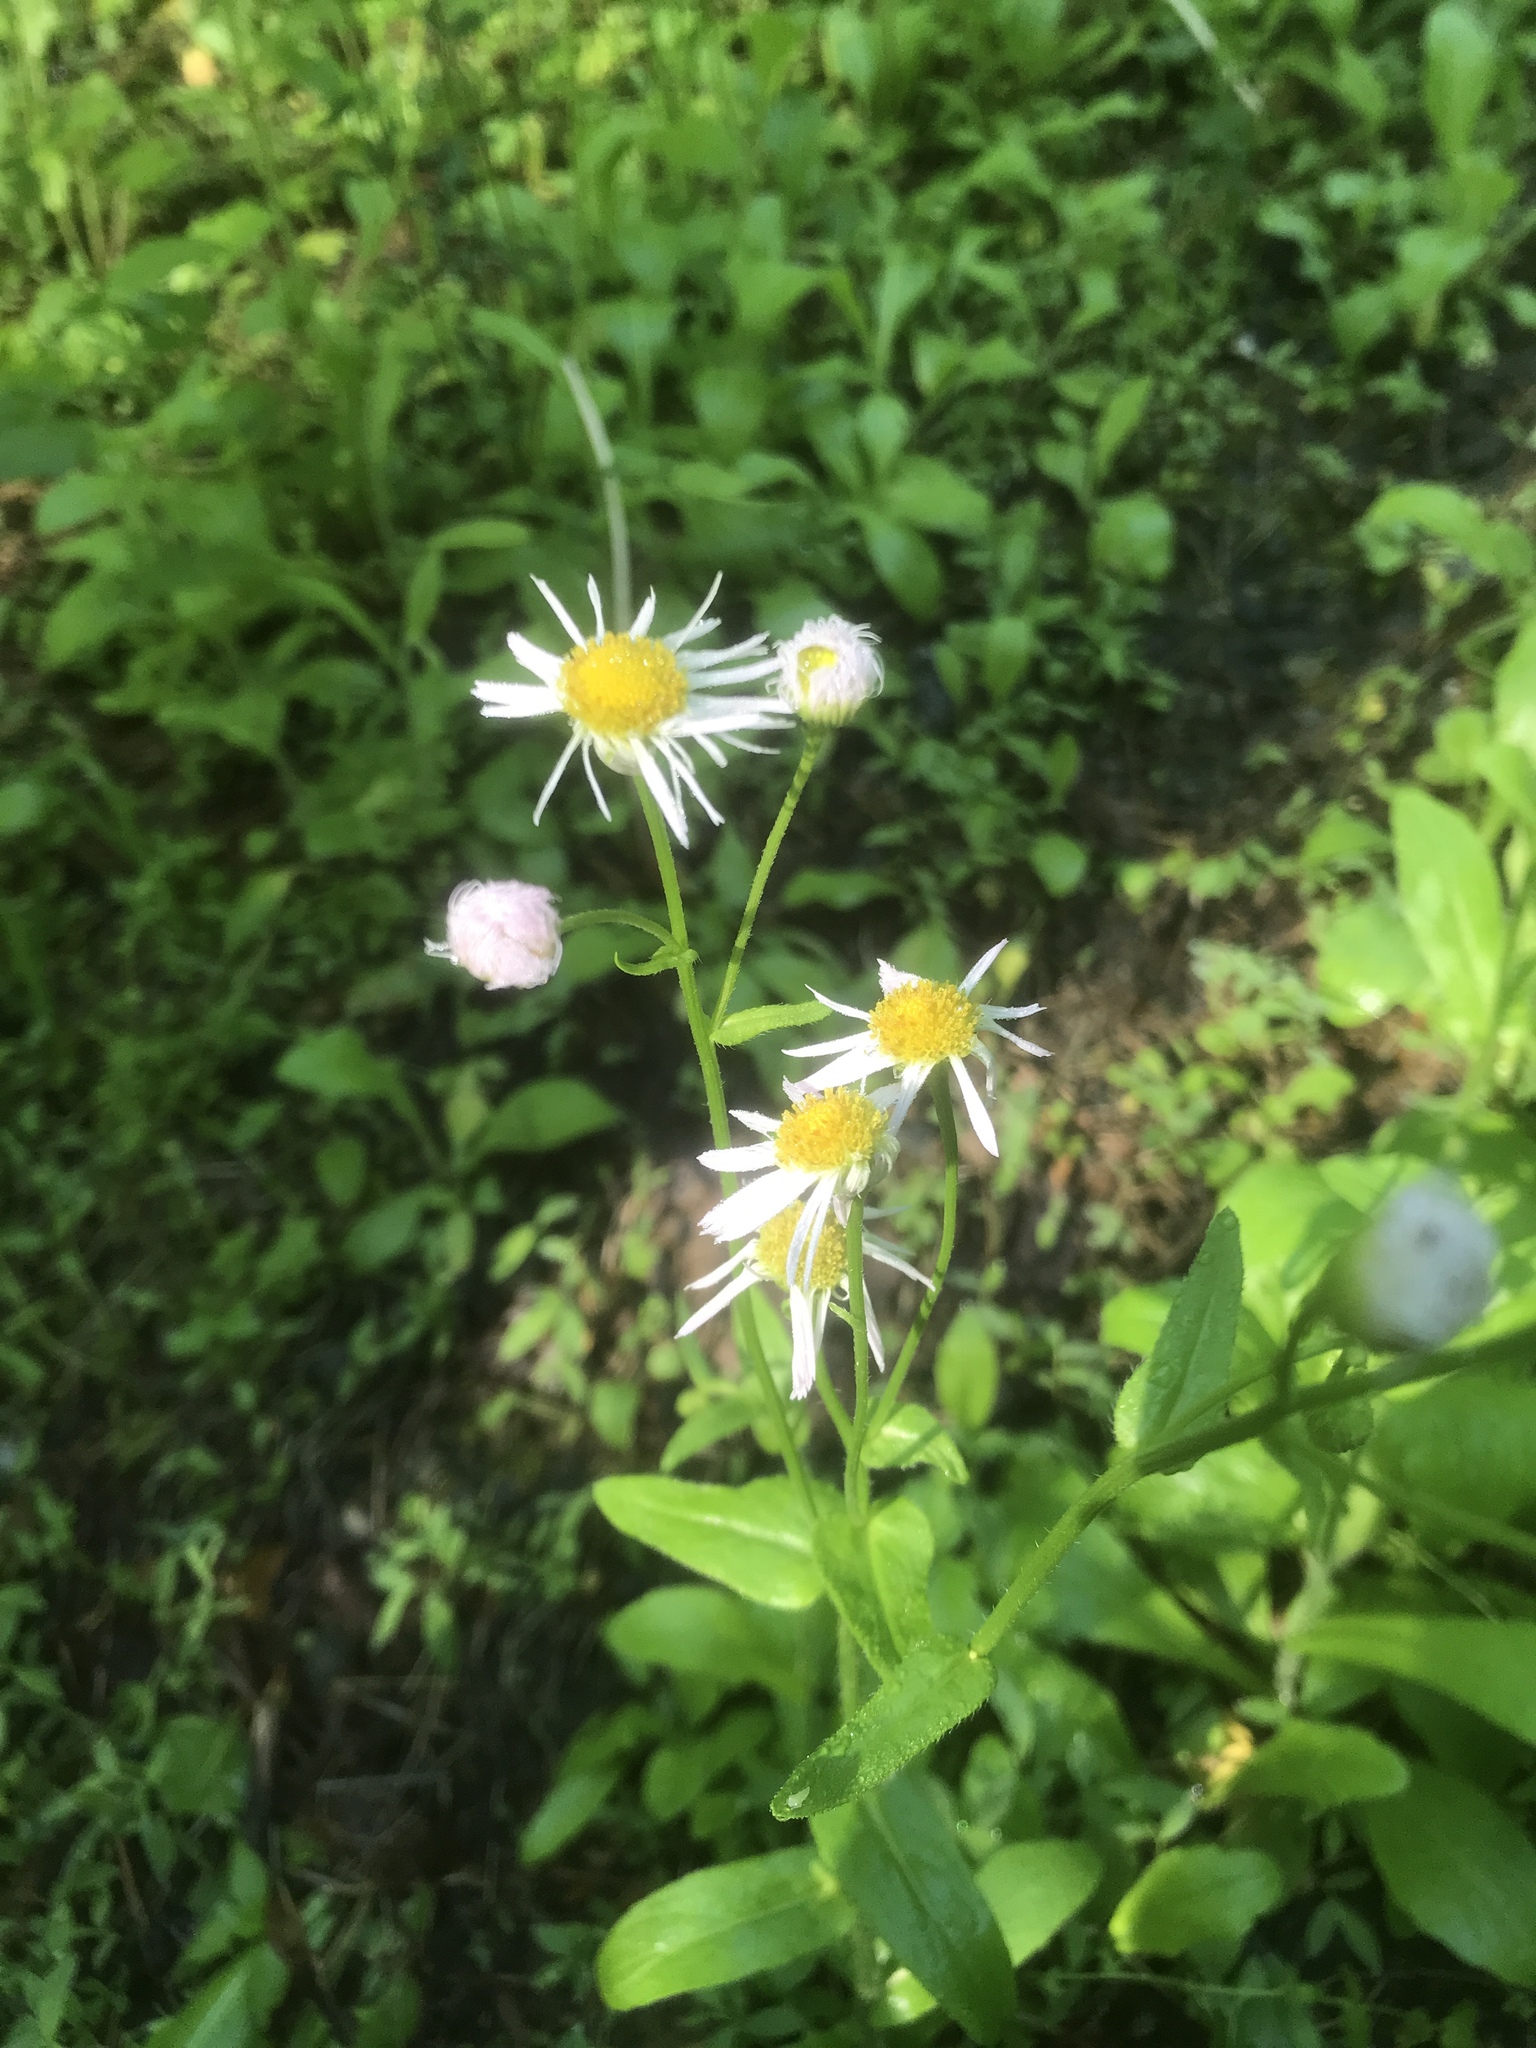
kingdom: Plantae
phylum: Tracheophyta
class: Magnoliopsida
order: Asterales
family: Asteraceae
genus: Erigeron
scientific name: Erigeron philadelphicus
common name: Robin's-plantain
